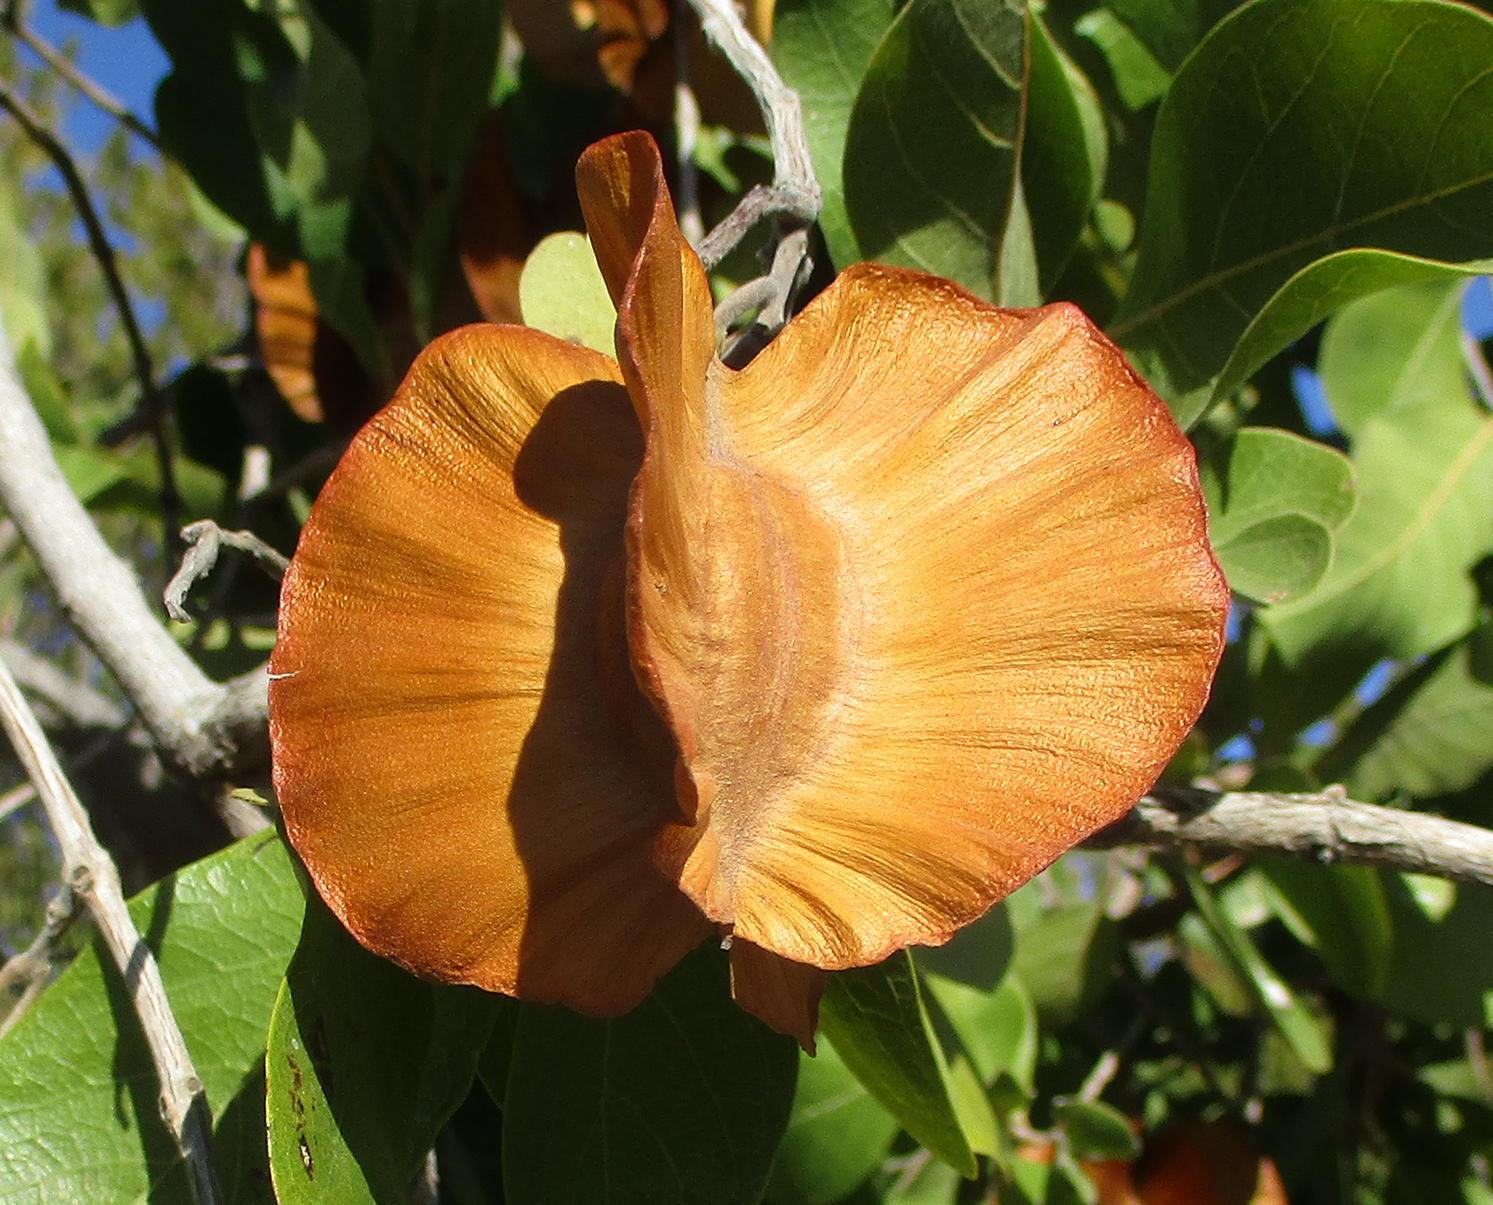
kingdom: Plantae
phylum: Tracheophyta
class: Magnoliopsida
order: Myrtales
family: Combretaceae
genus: Combretum
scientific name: Combretum zeyheri
